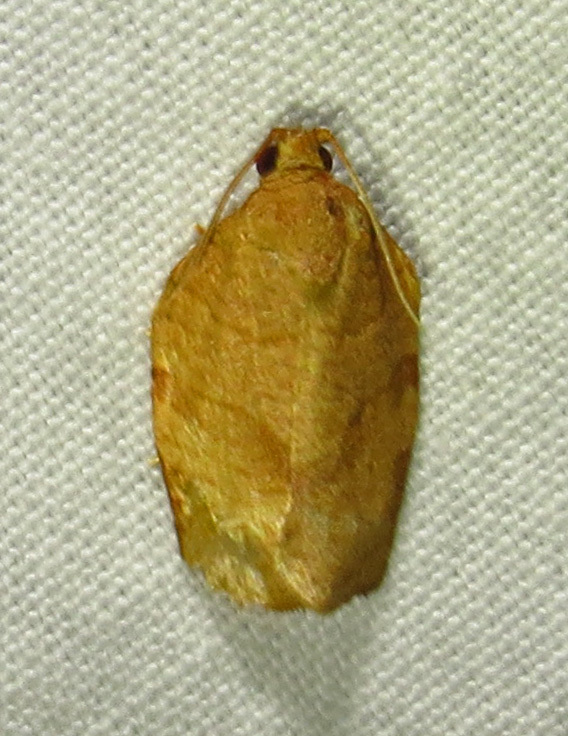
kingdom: Animalia
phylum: Arthropoda
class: Insecta
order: Lepidoptera
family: Tortricidae
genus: Choristoneura
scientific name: Choristoneura rosaceana
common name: Oblique-banded leafroller moth
